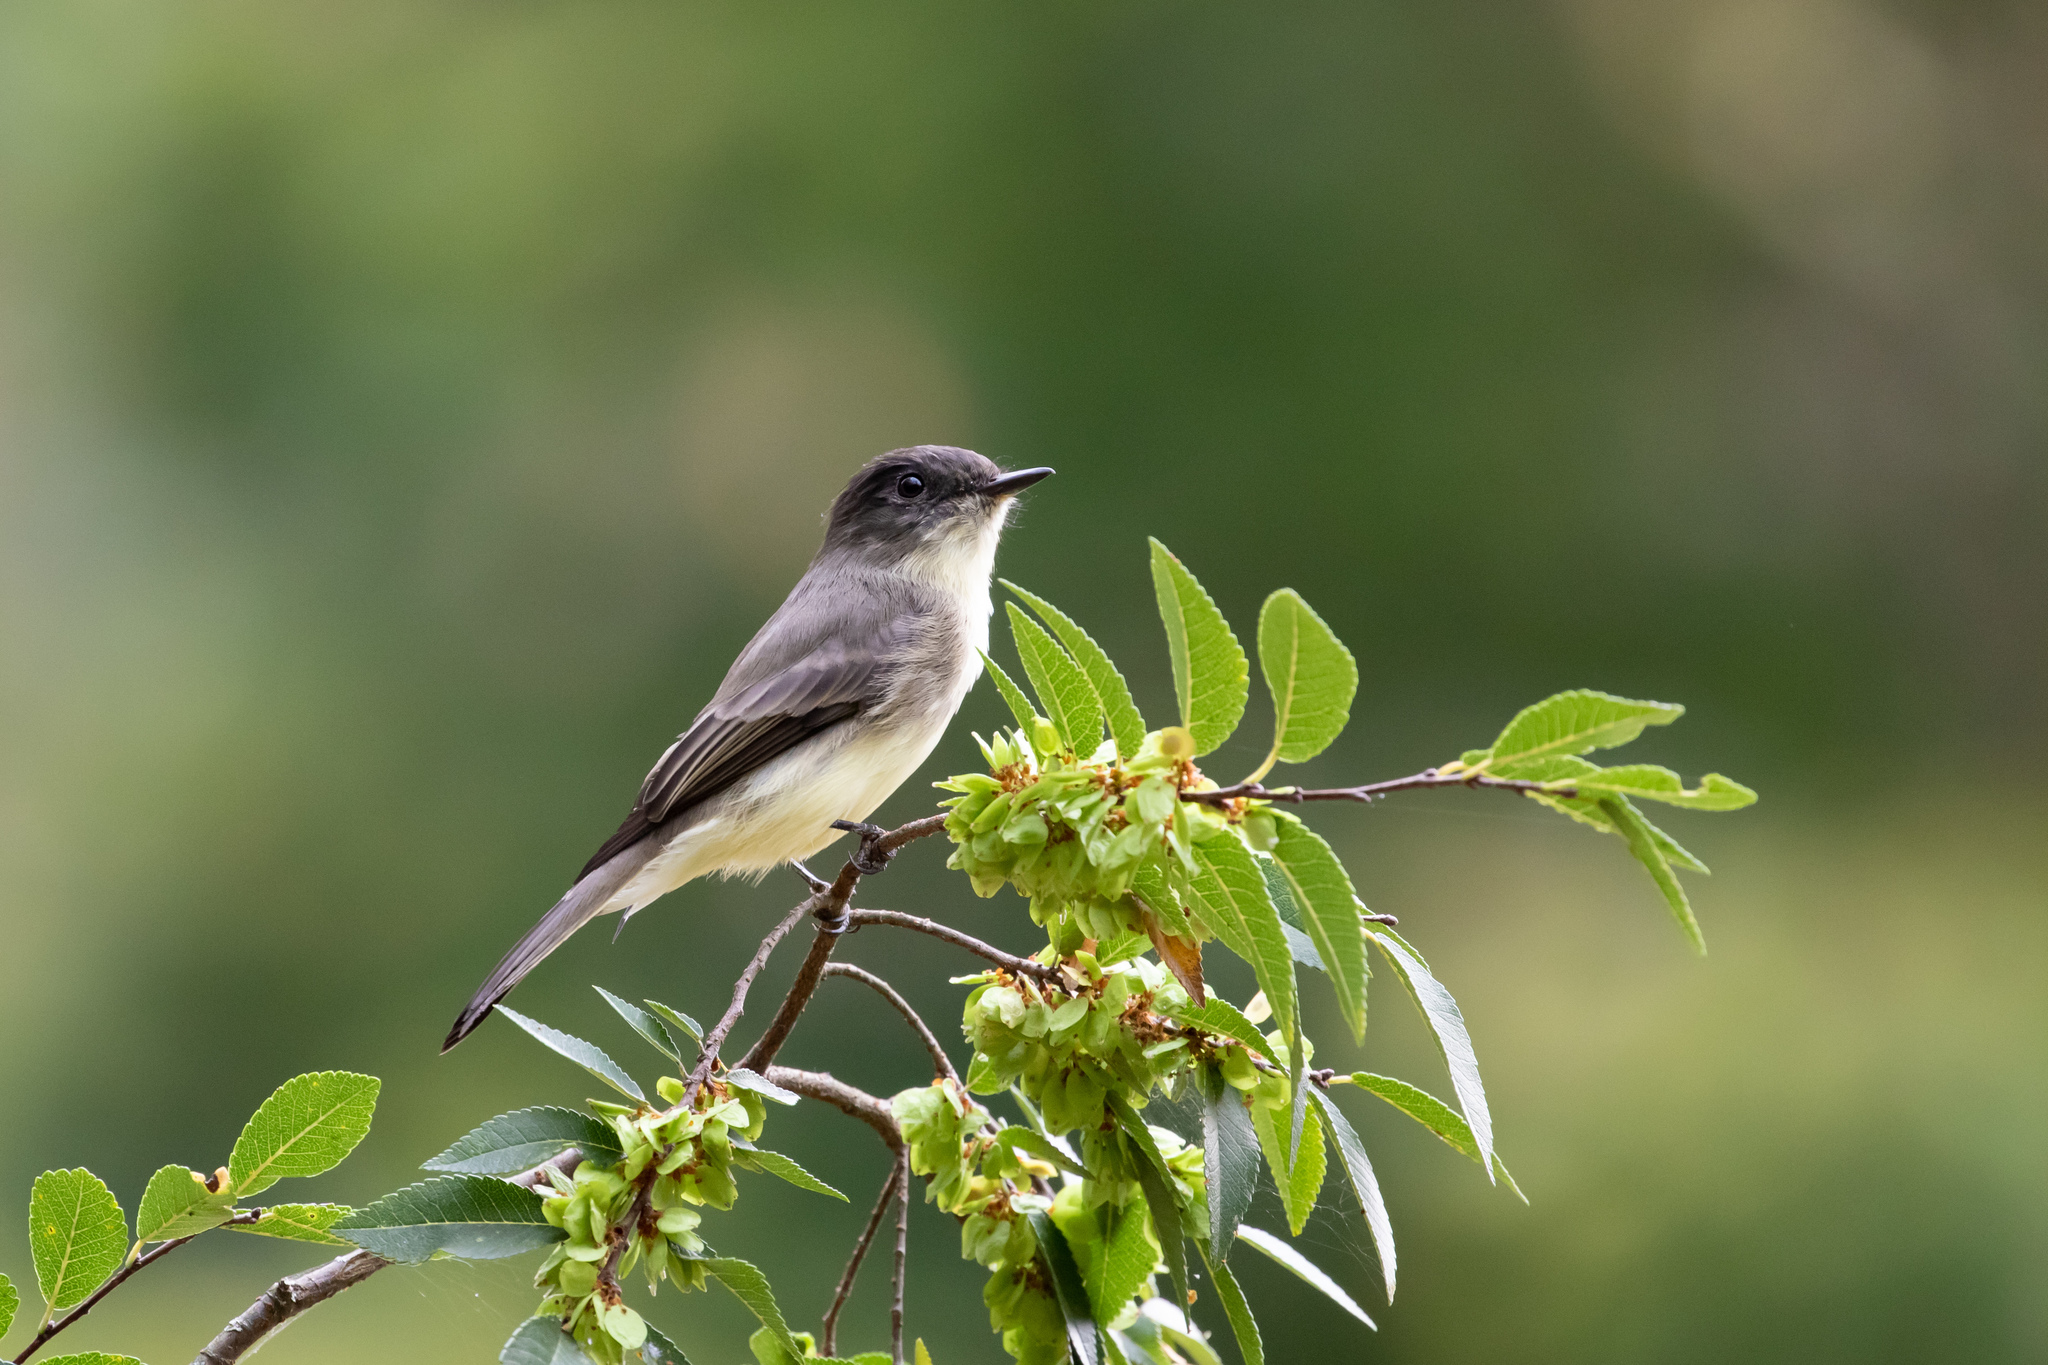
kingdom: Animalia
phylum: Chordata
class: Aves
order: Passeriformes
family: Tyrannidae
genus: Sayornis
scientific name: Sayornis phoebe
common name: Eastern phoebe
